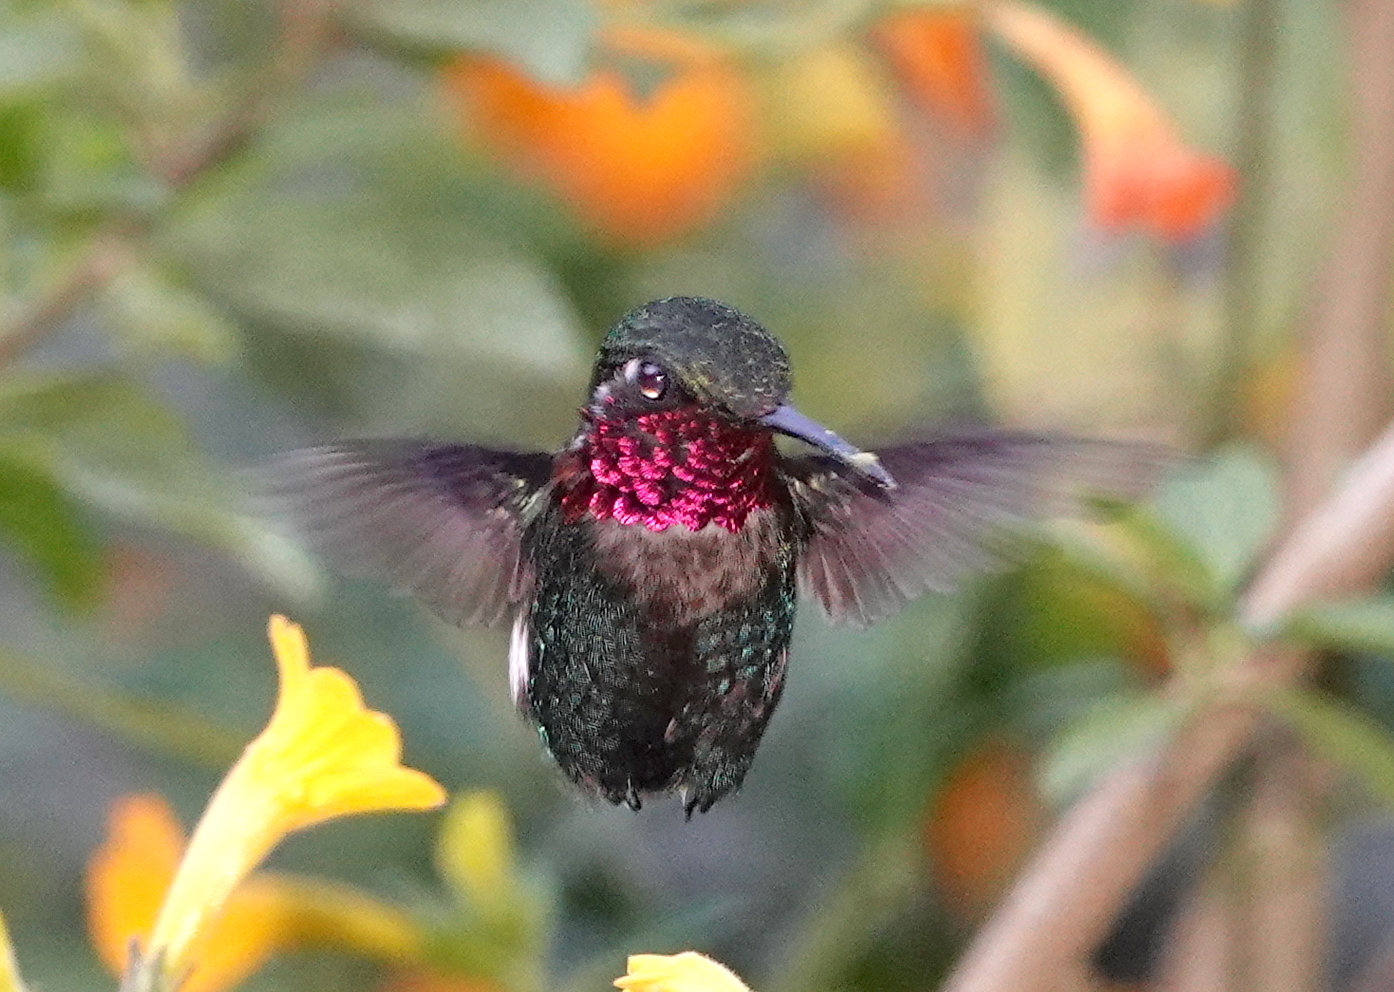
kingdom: Animalia
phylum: Chordata
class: Aves
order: Apodiformes
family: Trochilidae
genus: Chaetocercus
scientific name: Chaetocercus astreans
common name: Santa marta woodstar
